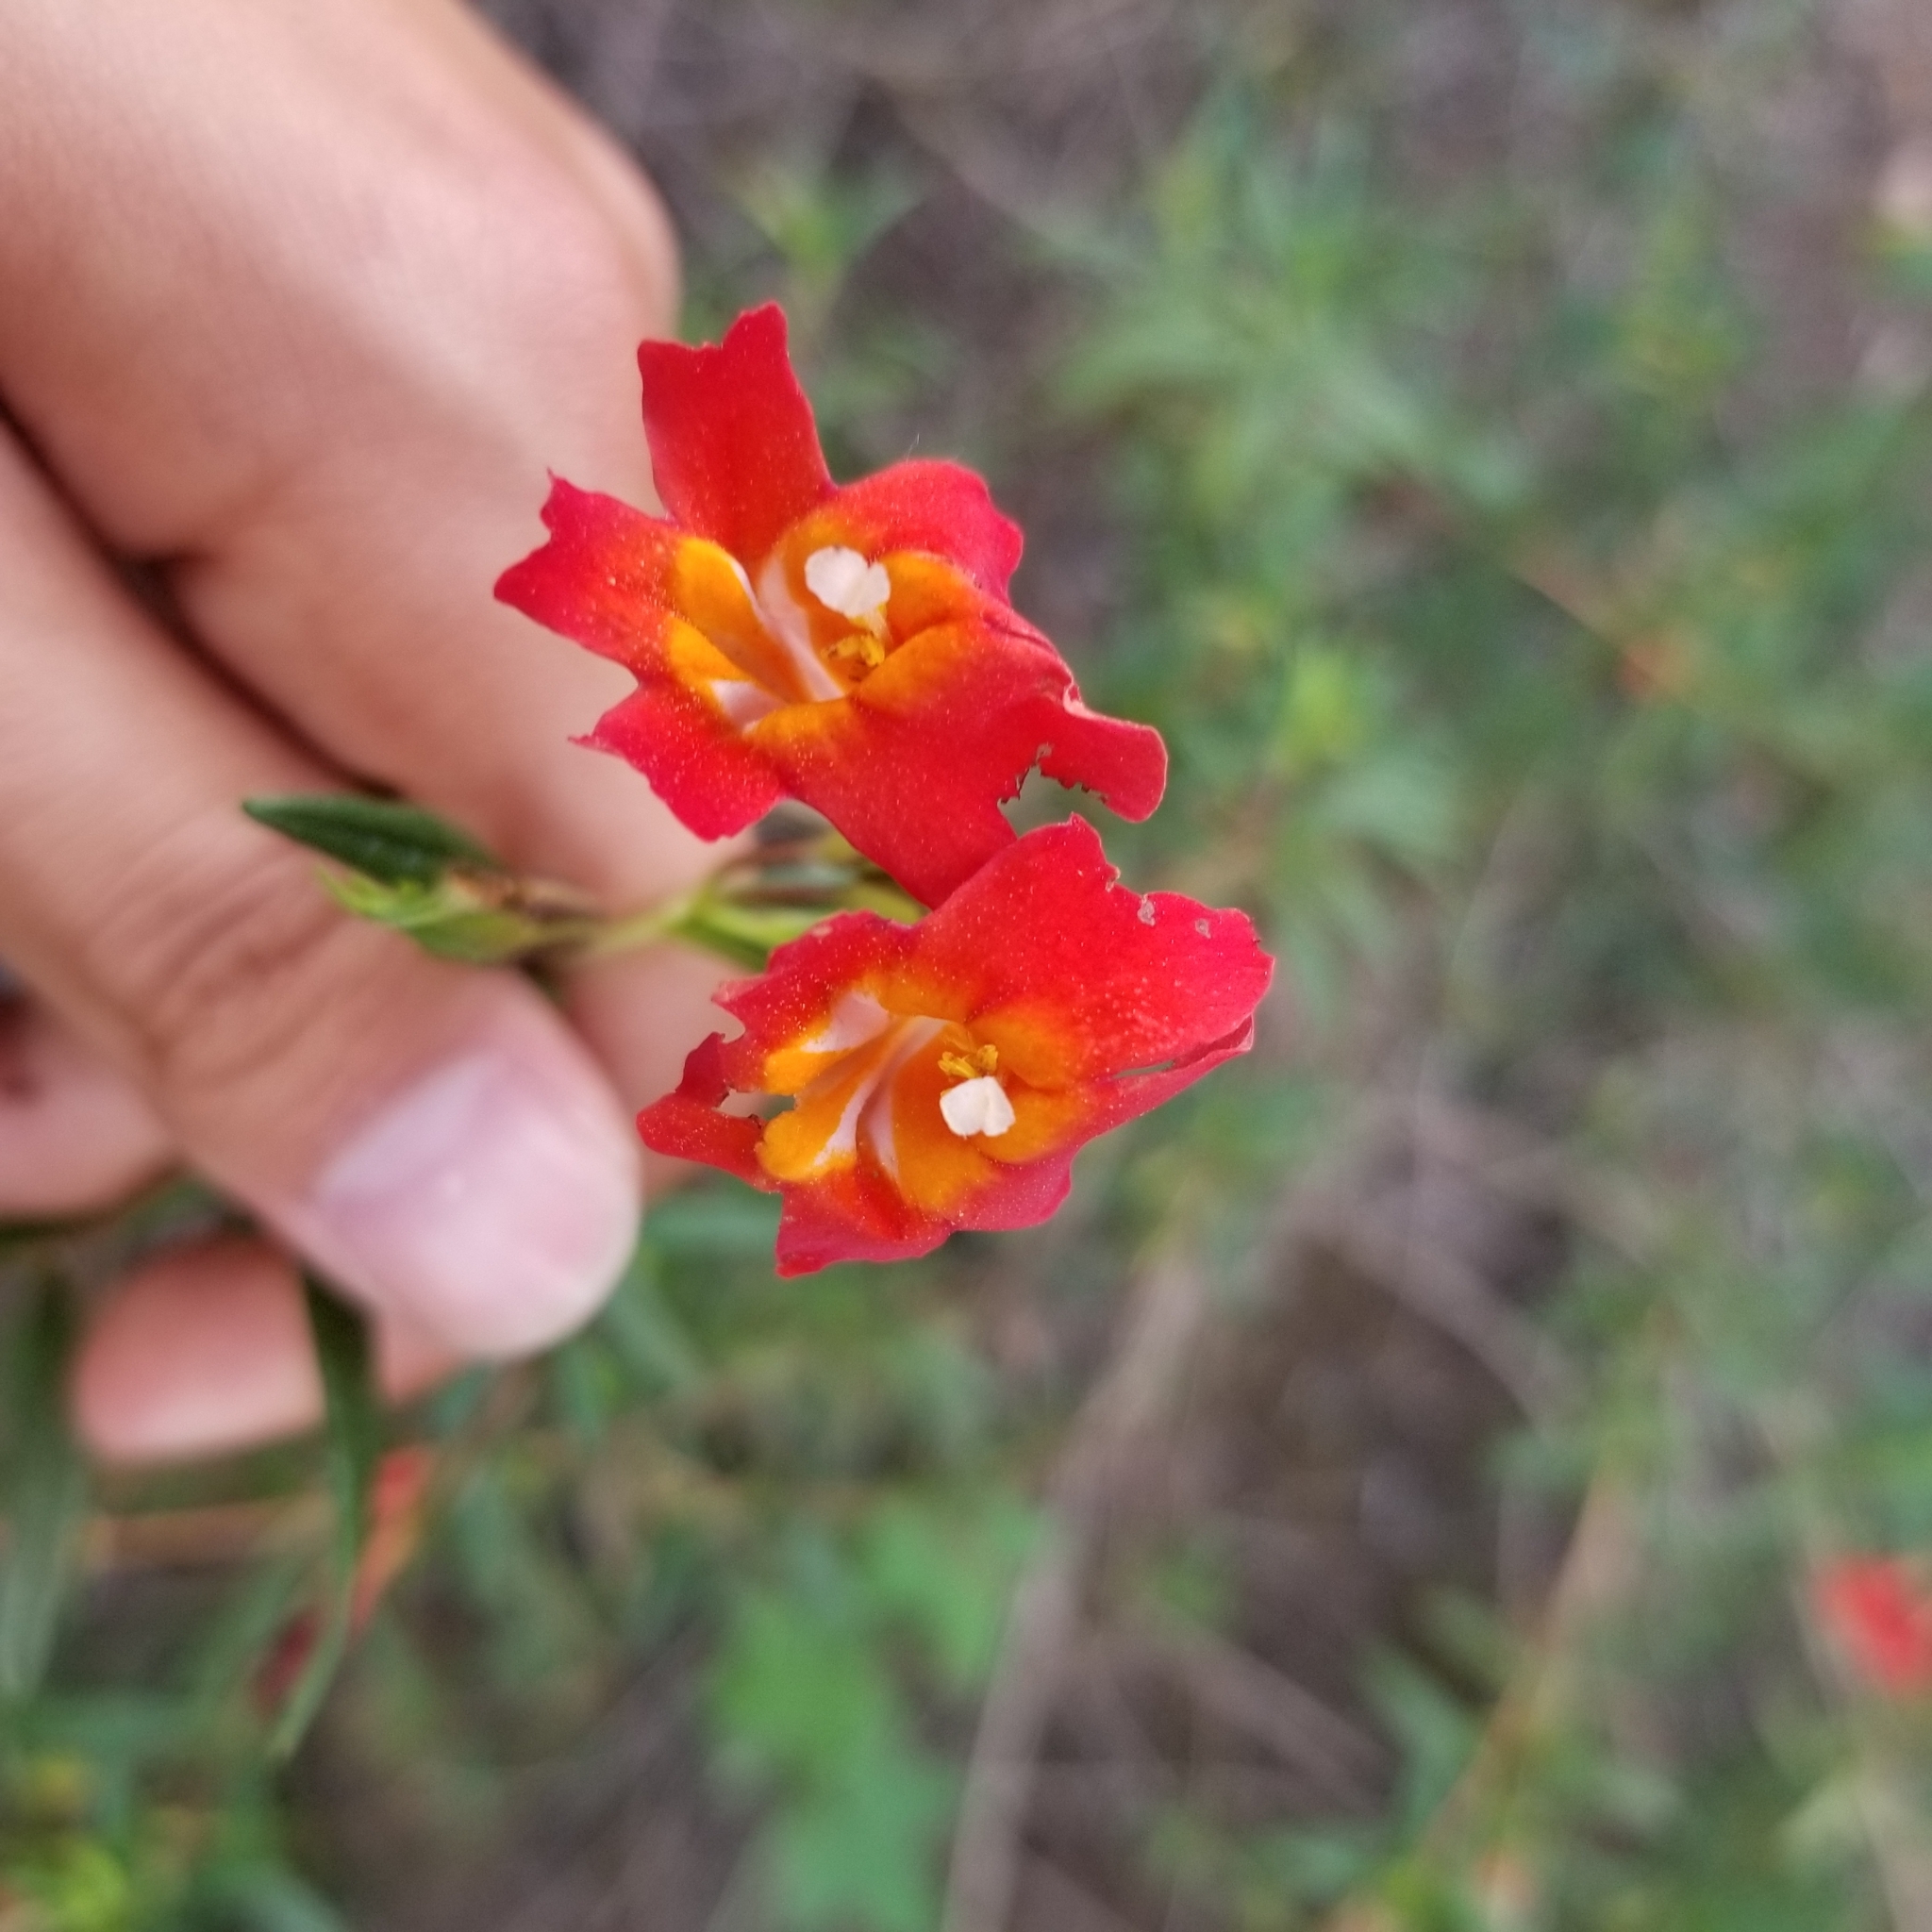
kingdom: Plantae
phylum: Tracheophyta
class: Magnoliopsida
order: Lamiales
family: Phrymaceae
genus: Diplacus
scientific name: Diplacus puniceus
